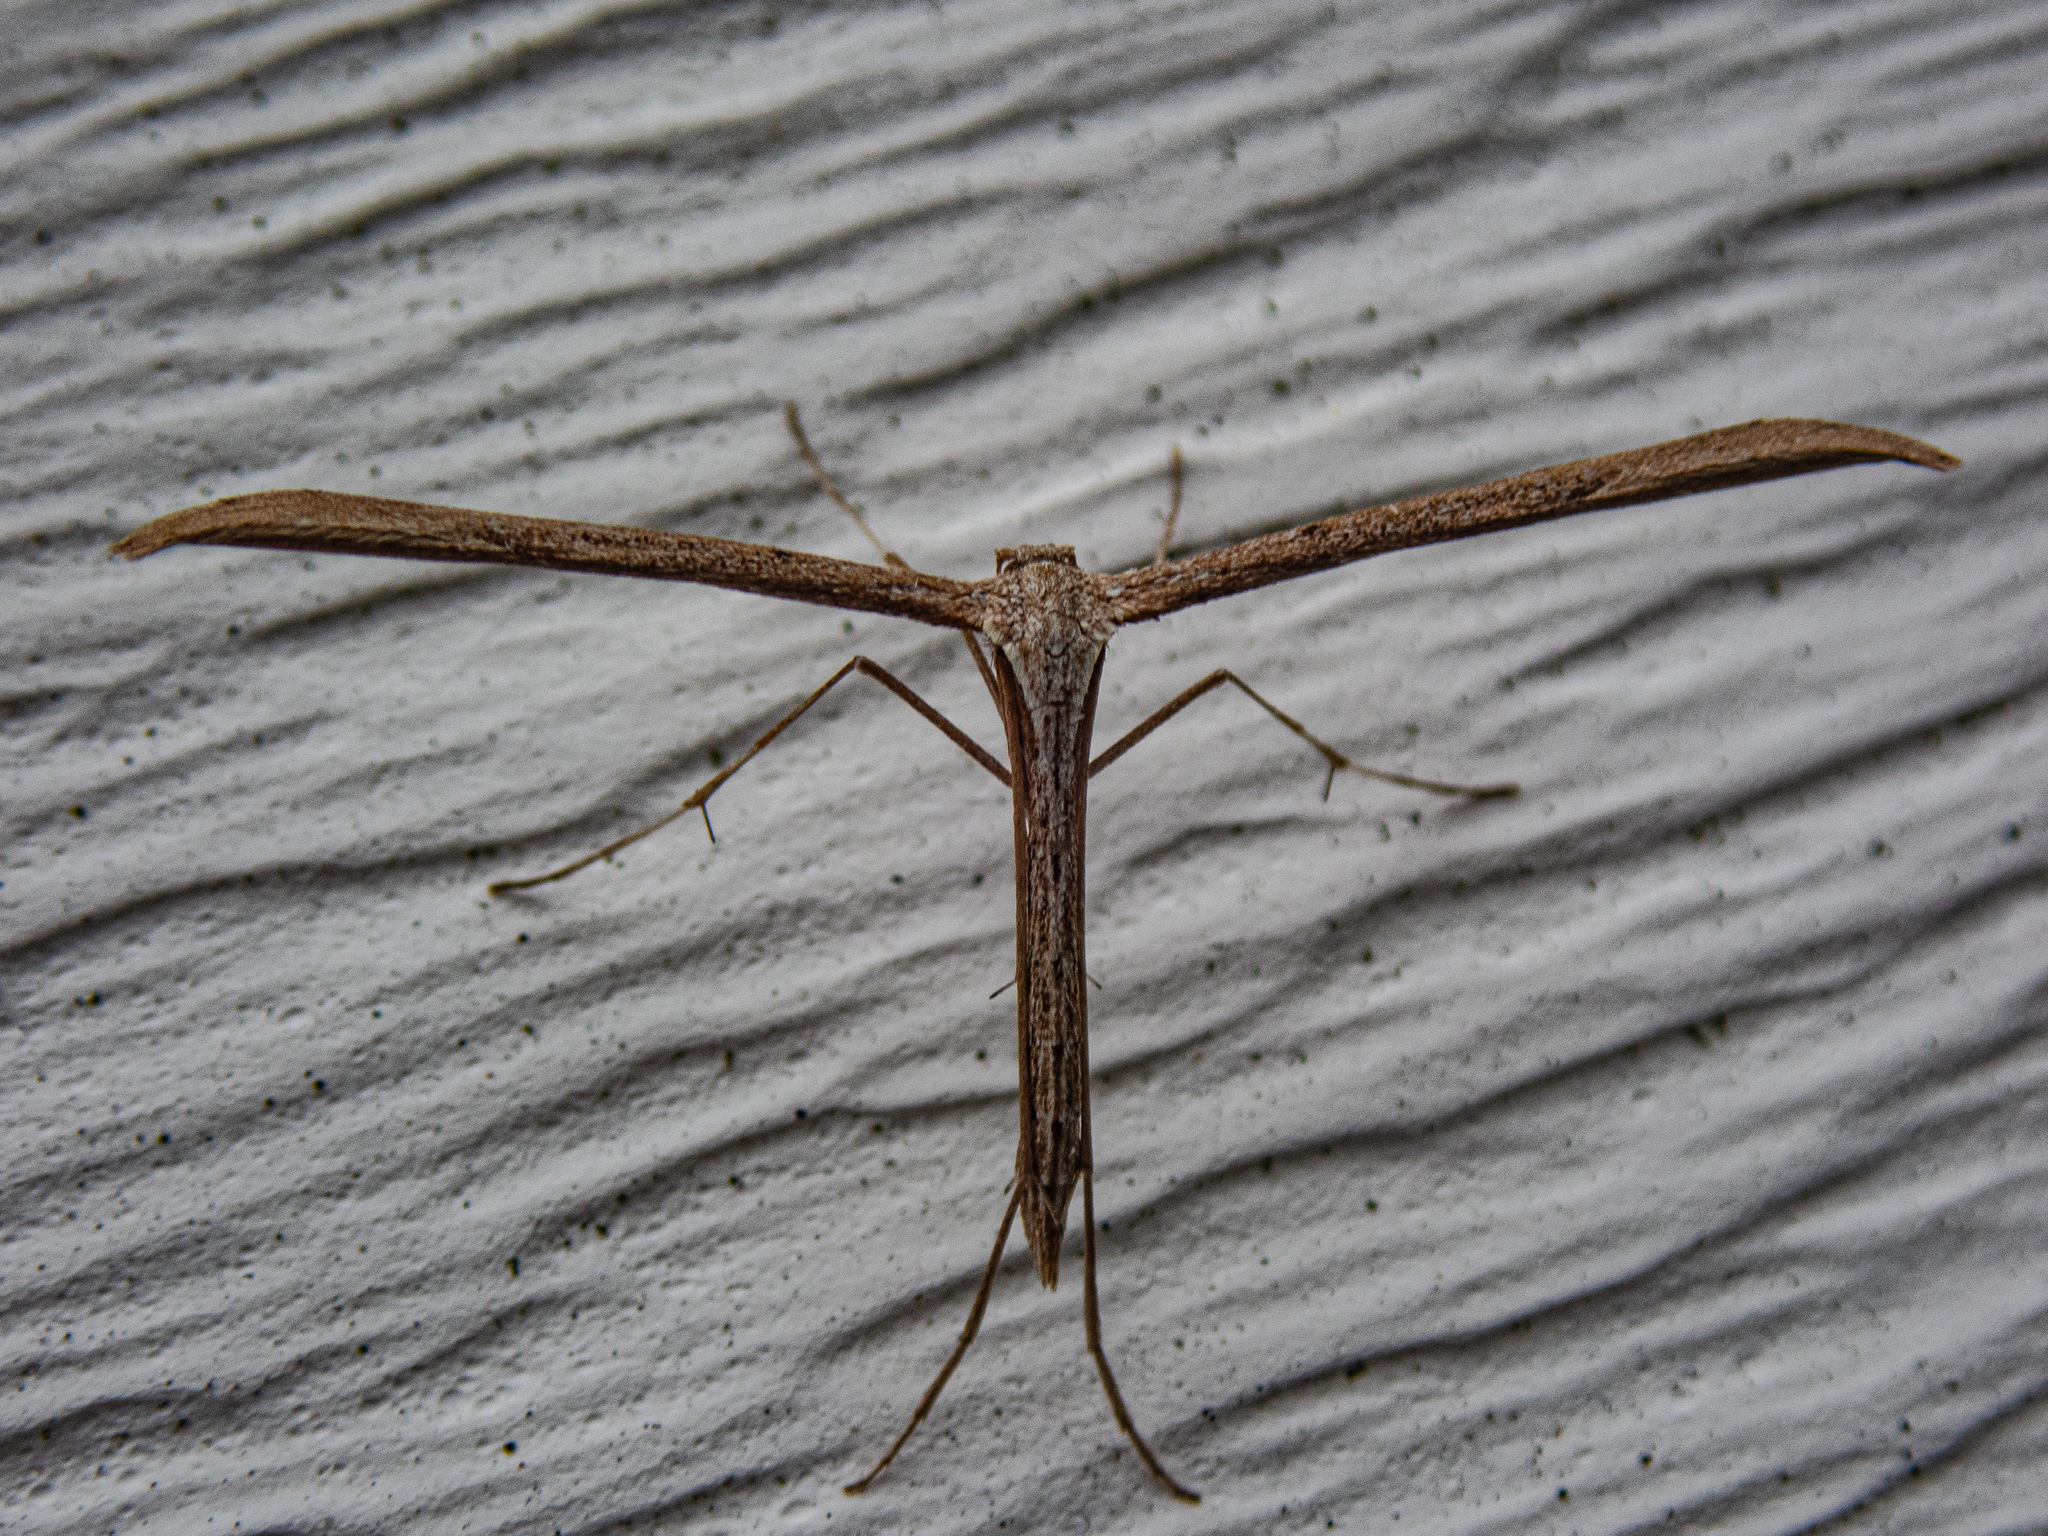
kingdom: Animalia
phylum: Arthropoda
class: Insecta
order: Lepidoptera
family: Pterophoridae
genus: Emmelina
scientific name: Emmelina monodactyla
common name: Common plume
